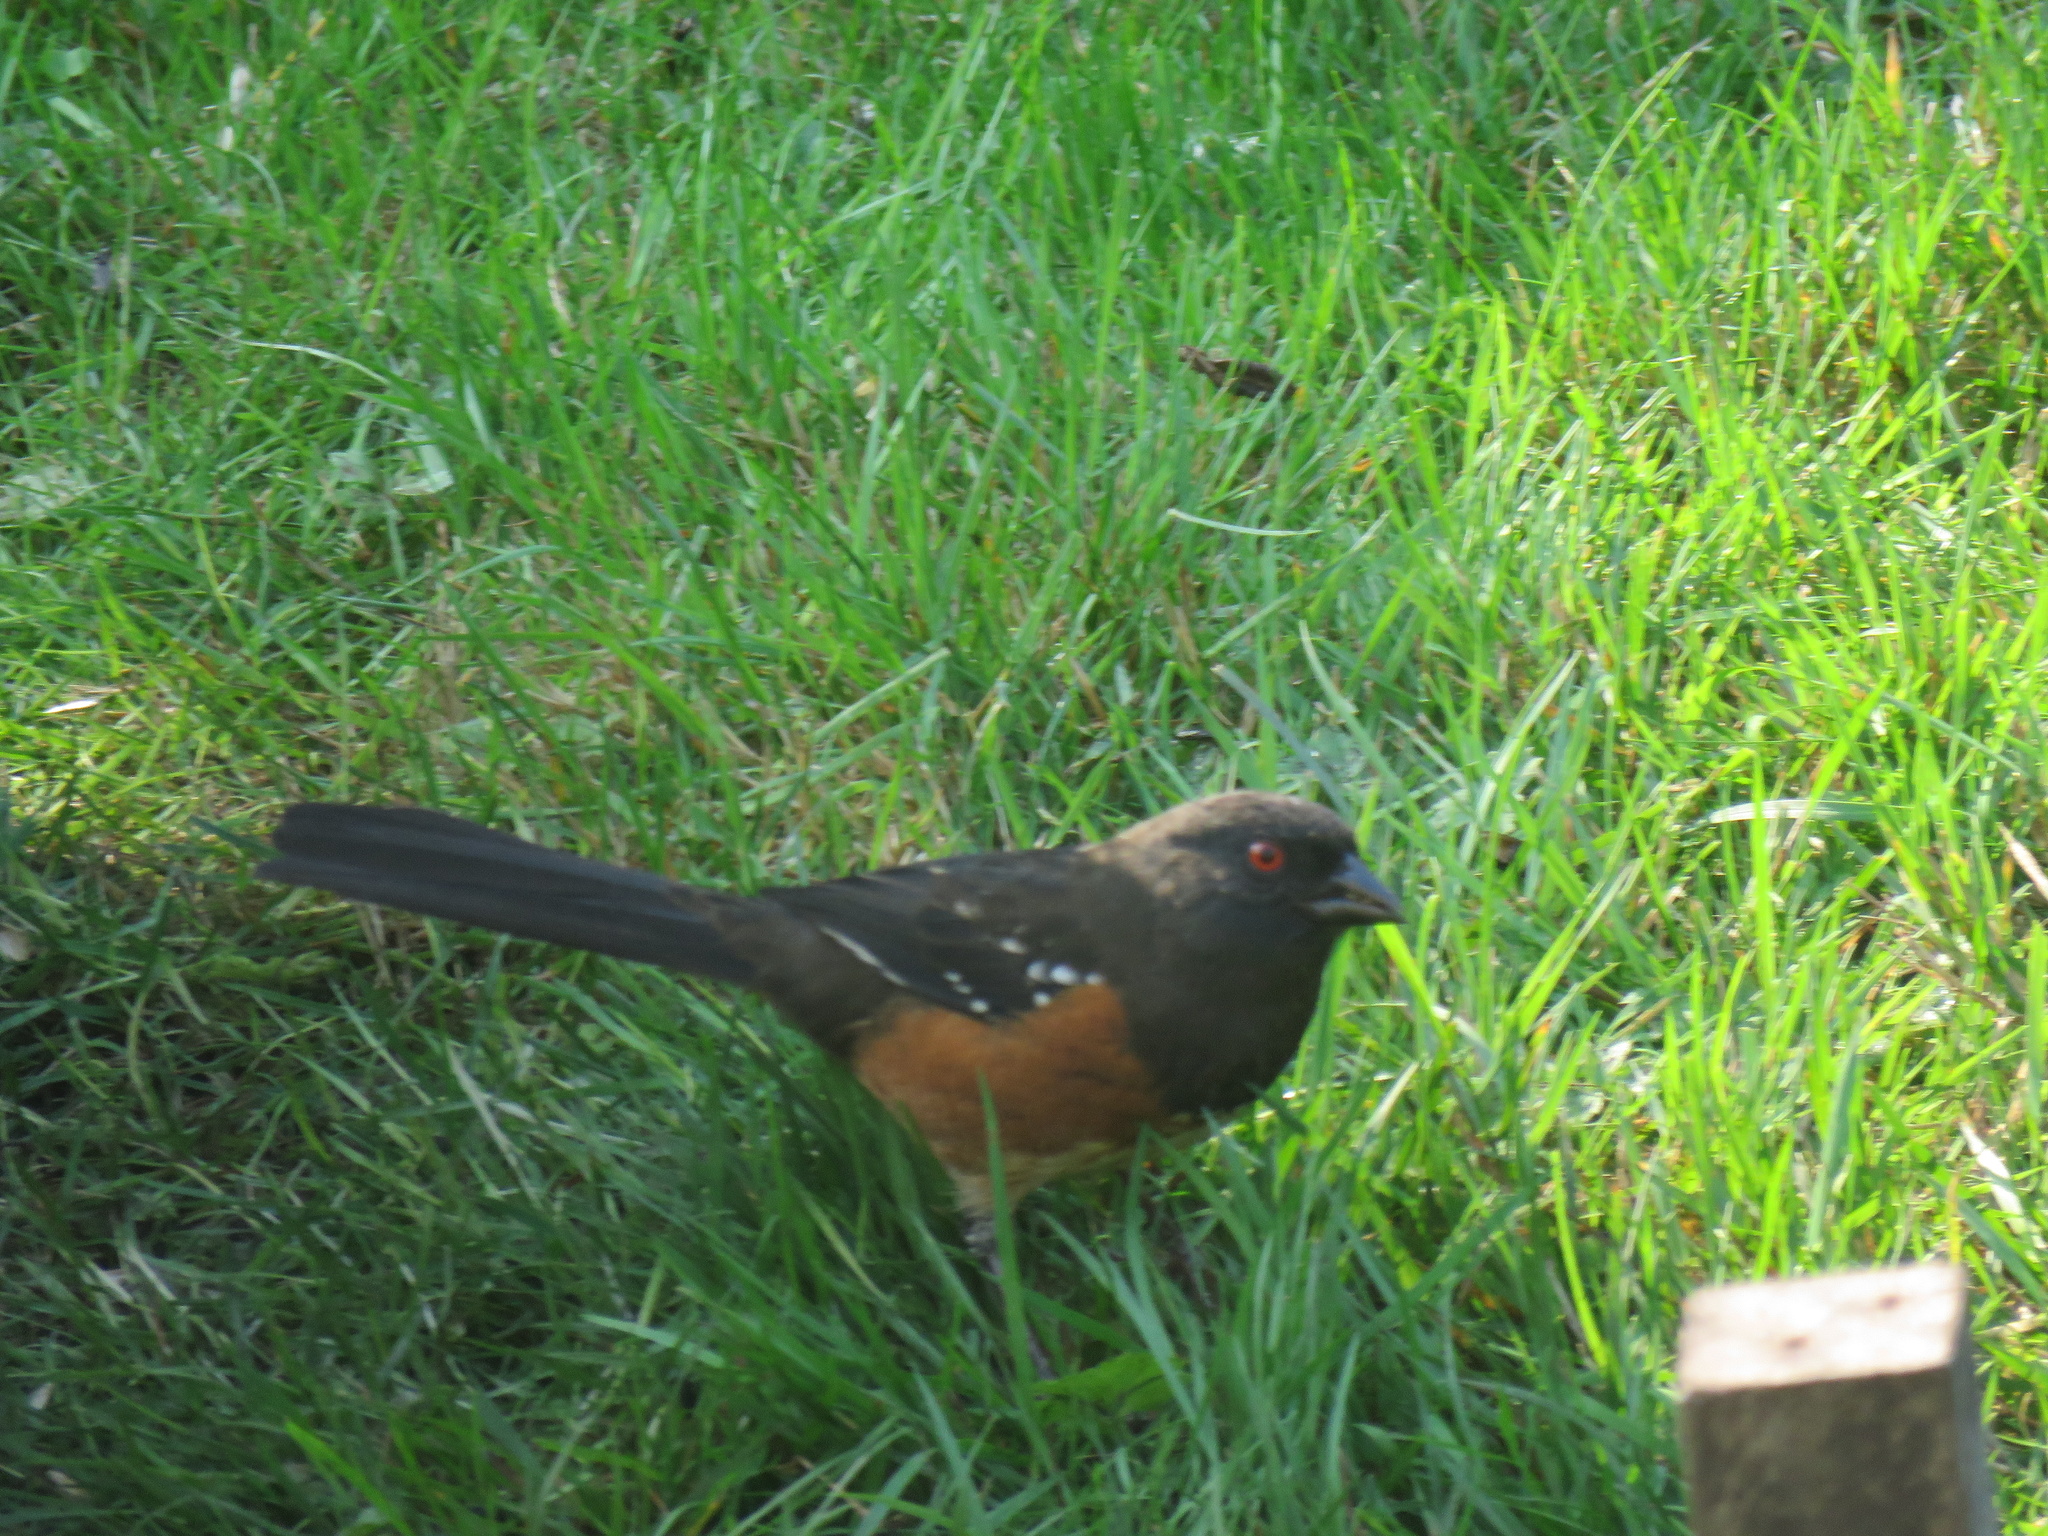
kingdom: Animalia
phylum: Chordata
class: Aves
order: Passeriformes
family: Passerellidae
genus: Pipilo
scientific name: Pipilo maculatus
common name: Spotted towhee
